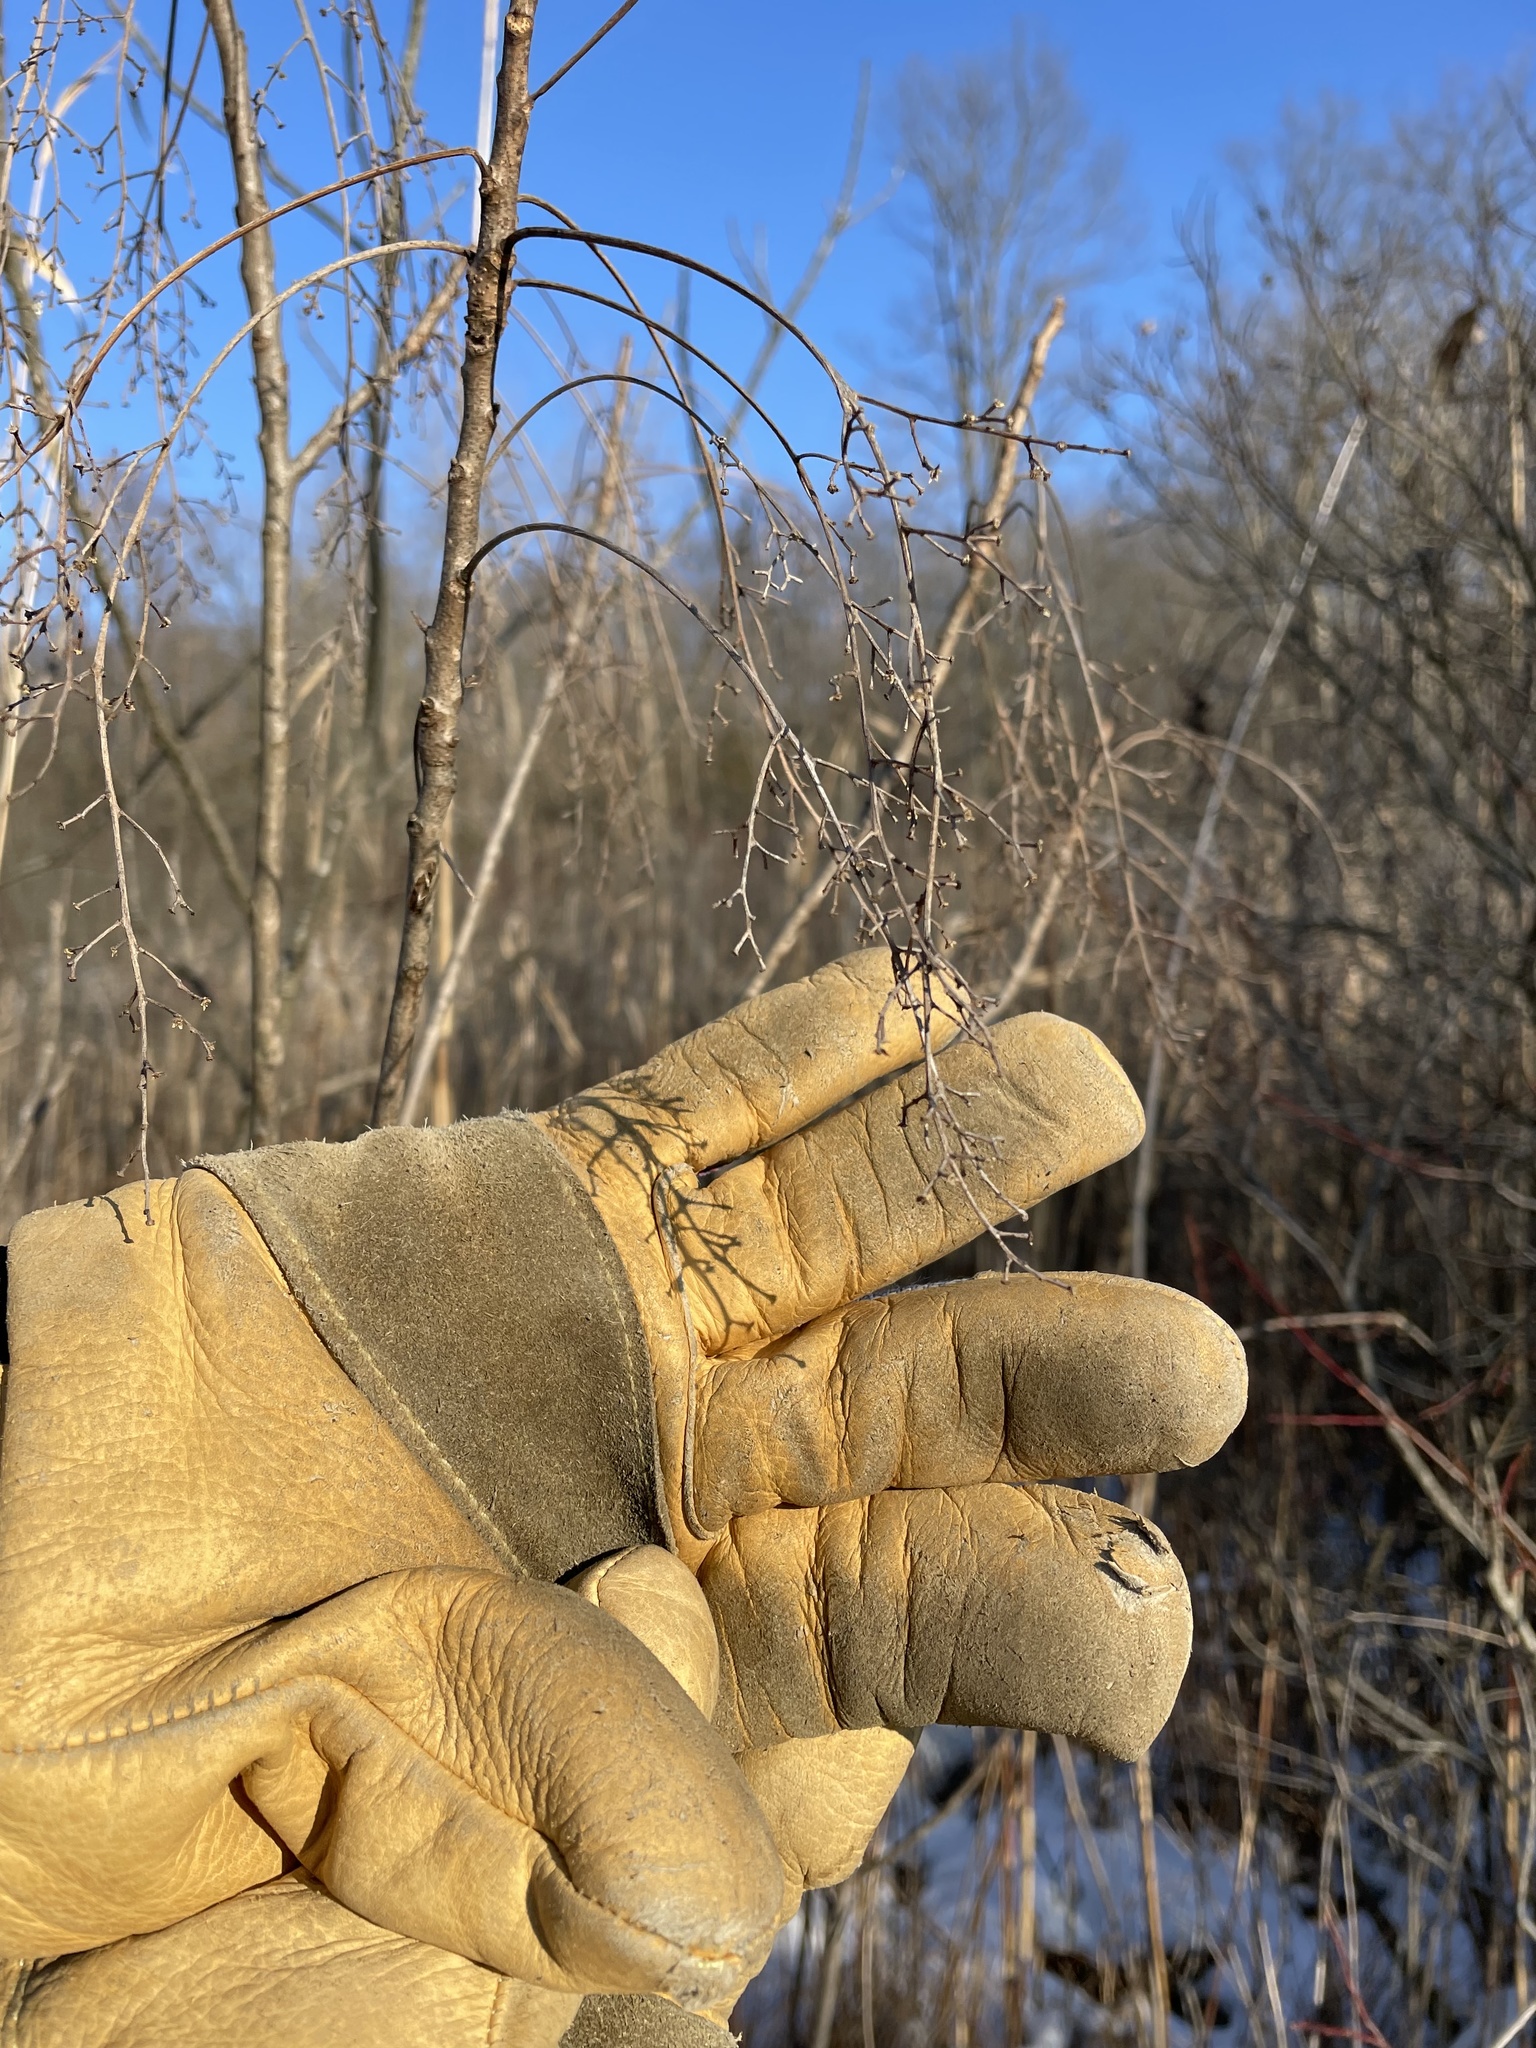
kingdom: Plantae
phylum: Tracheophyta
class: Magnoliopsida
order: Sapindales
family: Anacardiaceae
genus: Toxicodendron
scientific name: Toxicodendron vernix
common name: Poison sumac
